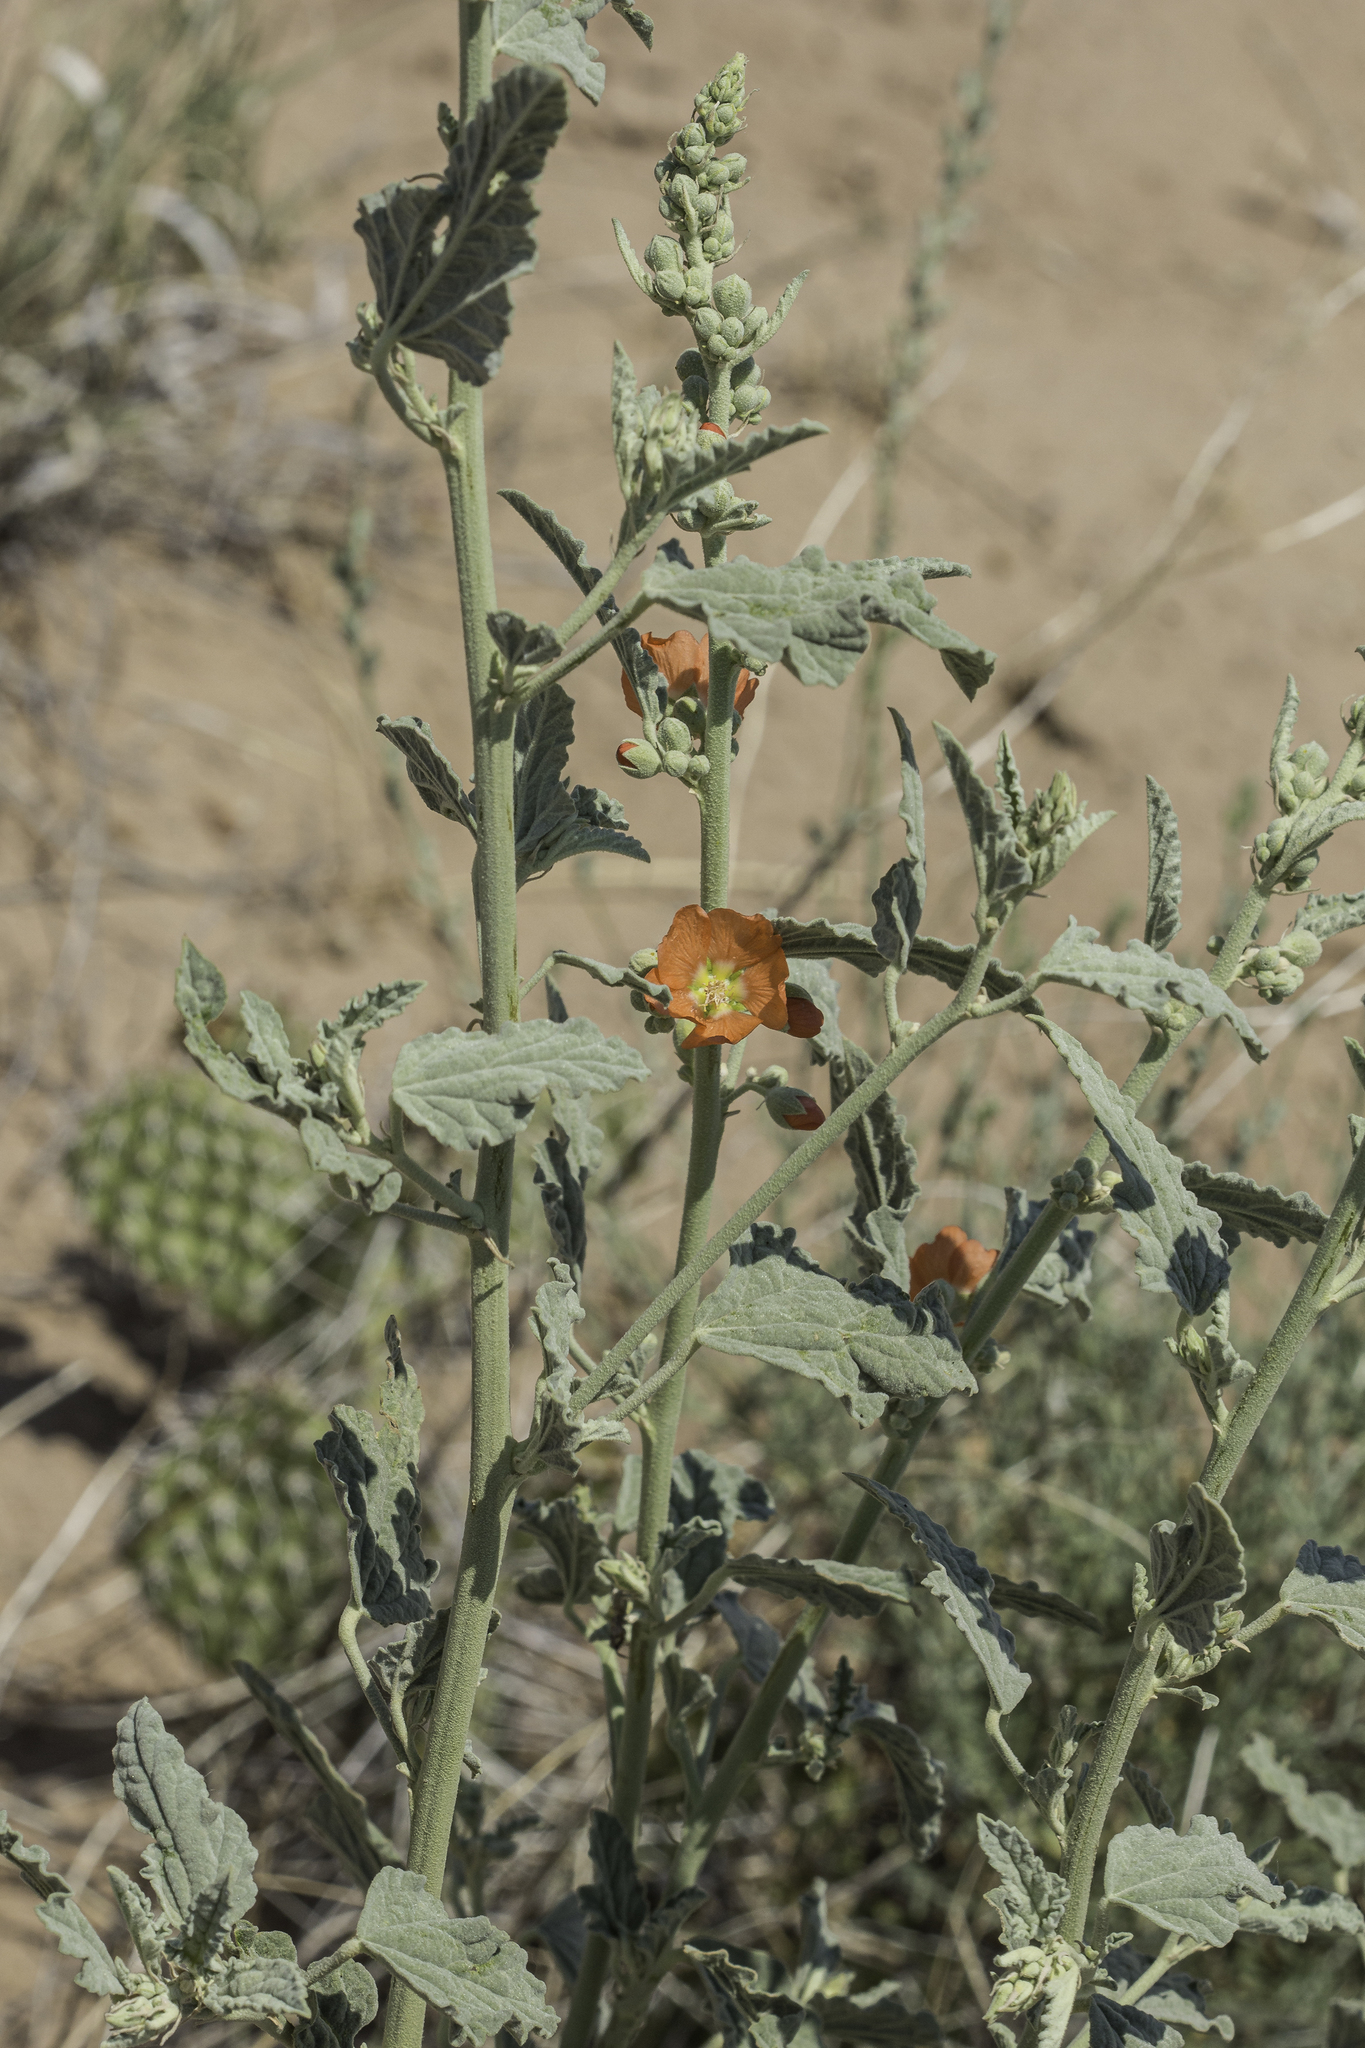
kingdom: Plantae
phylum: Tracheophyta
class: Magnoliopsida
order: Malvales
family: Malvaceae
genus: Sphaeralcea
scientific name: Sphaeralcea incana
